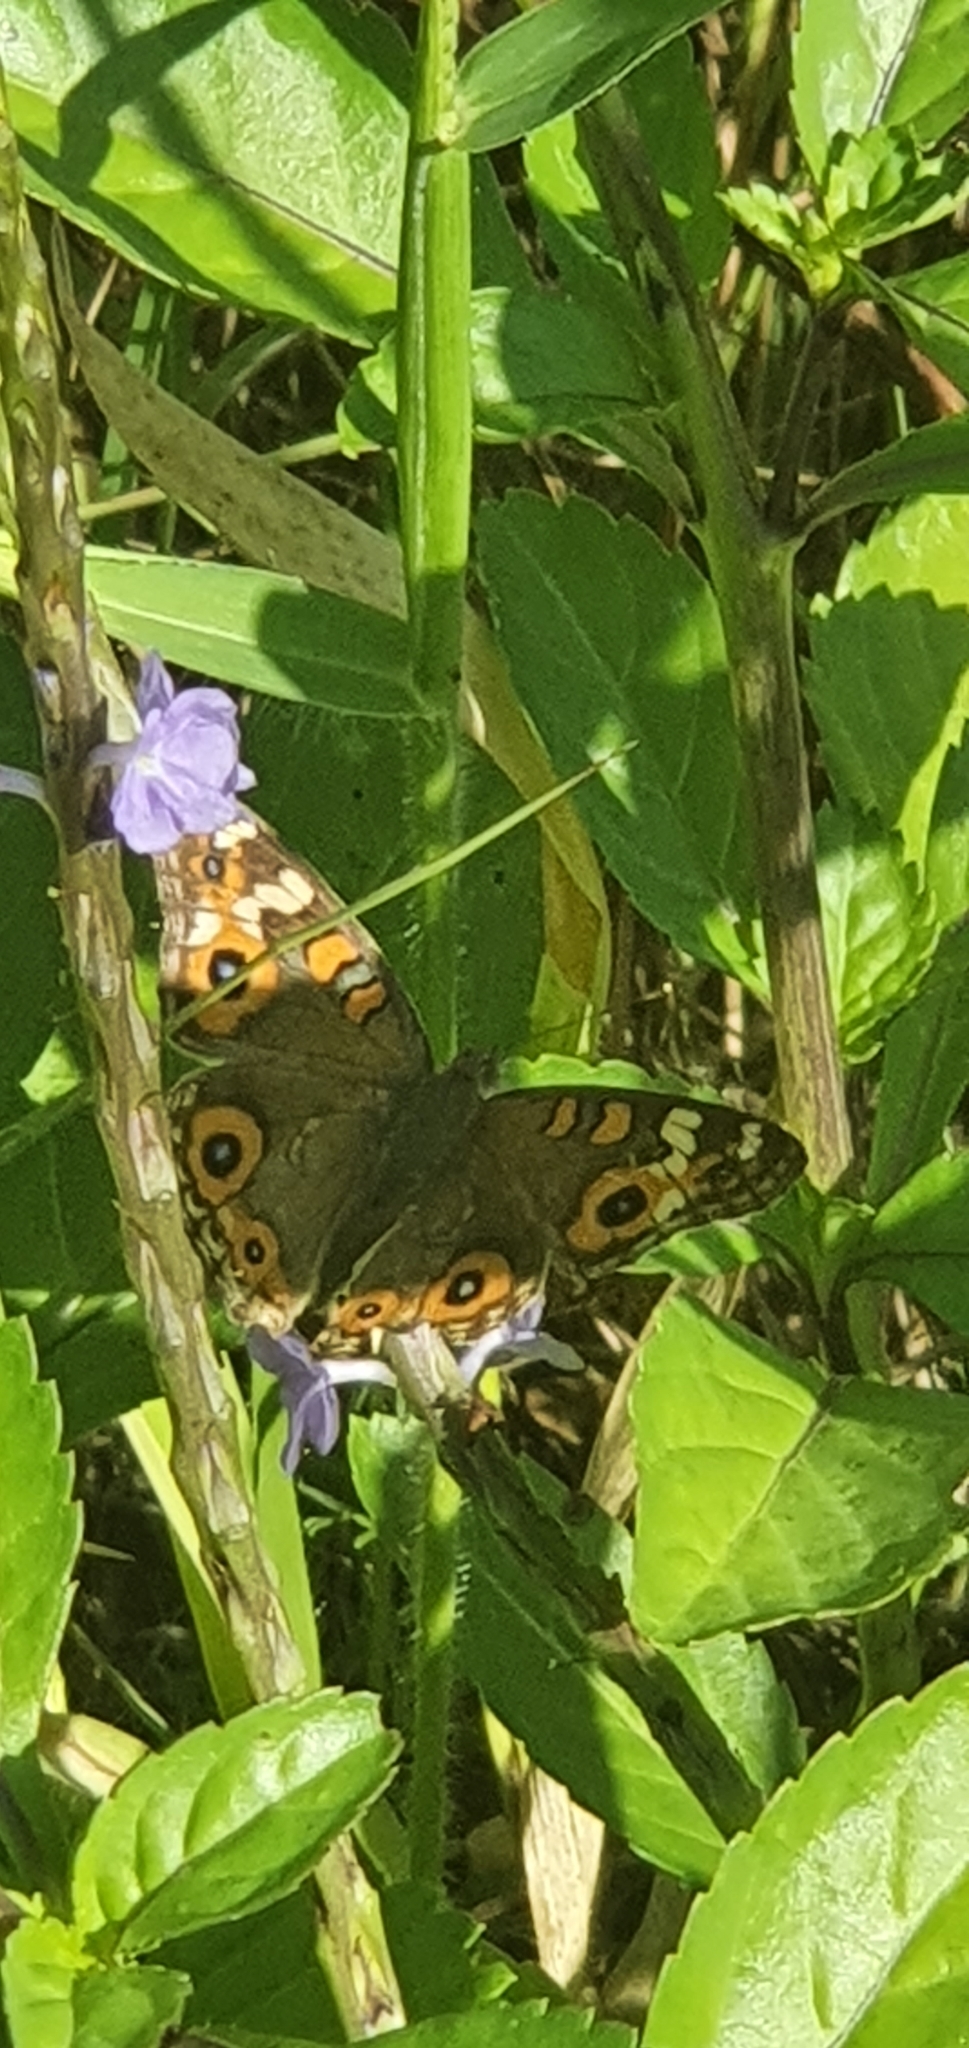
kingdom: Animalia
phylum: Arthropoda
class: Insecta
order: Lepidoptera
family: Nymphalidae
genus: Junonia
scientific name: Junonia villida
